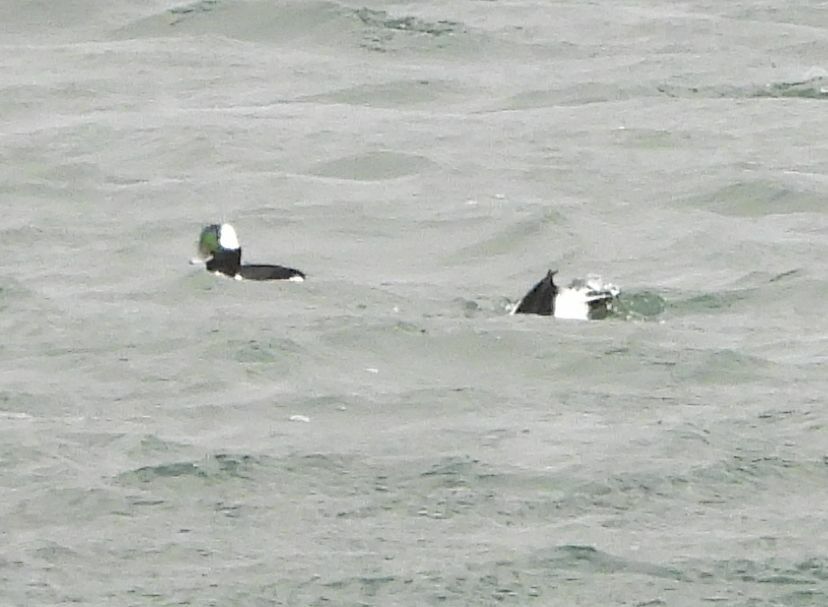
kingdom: Animalia
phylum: Chordata
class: Aves
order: Anseriformes
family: Anatidae
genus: Bucephala
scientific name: Bucephala albeola
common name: Bufflehead
